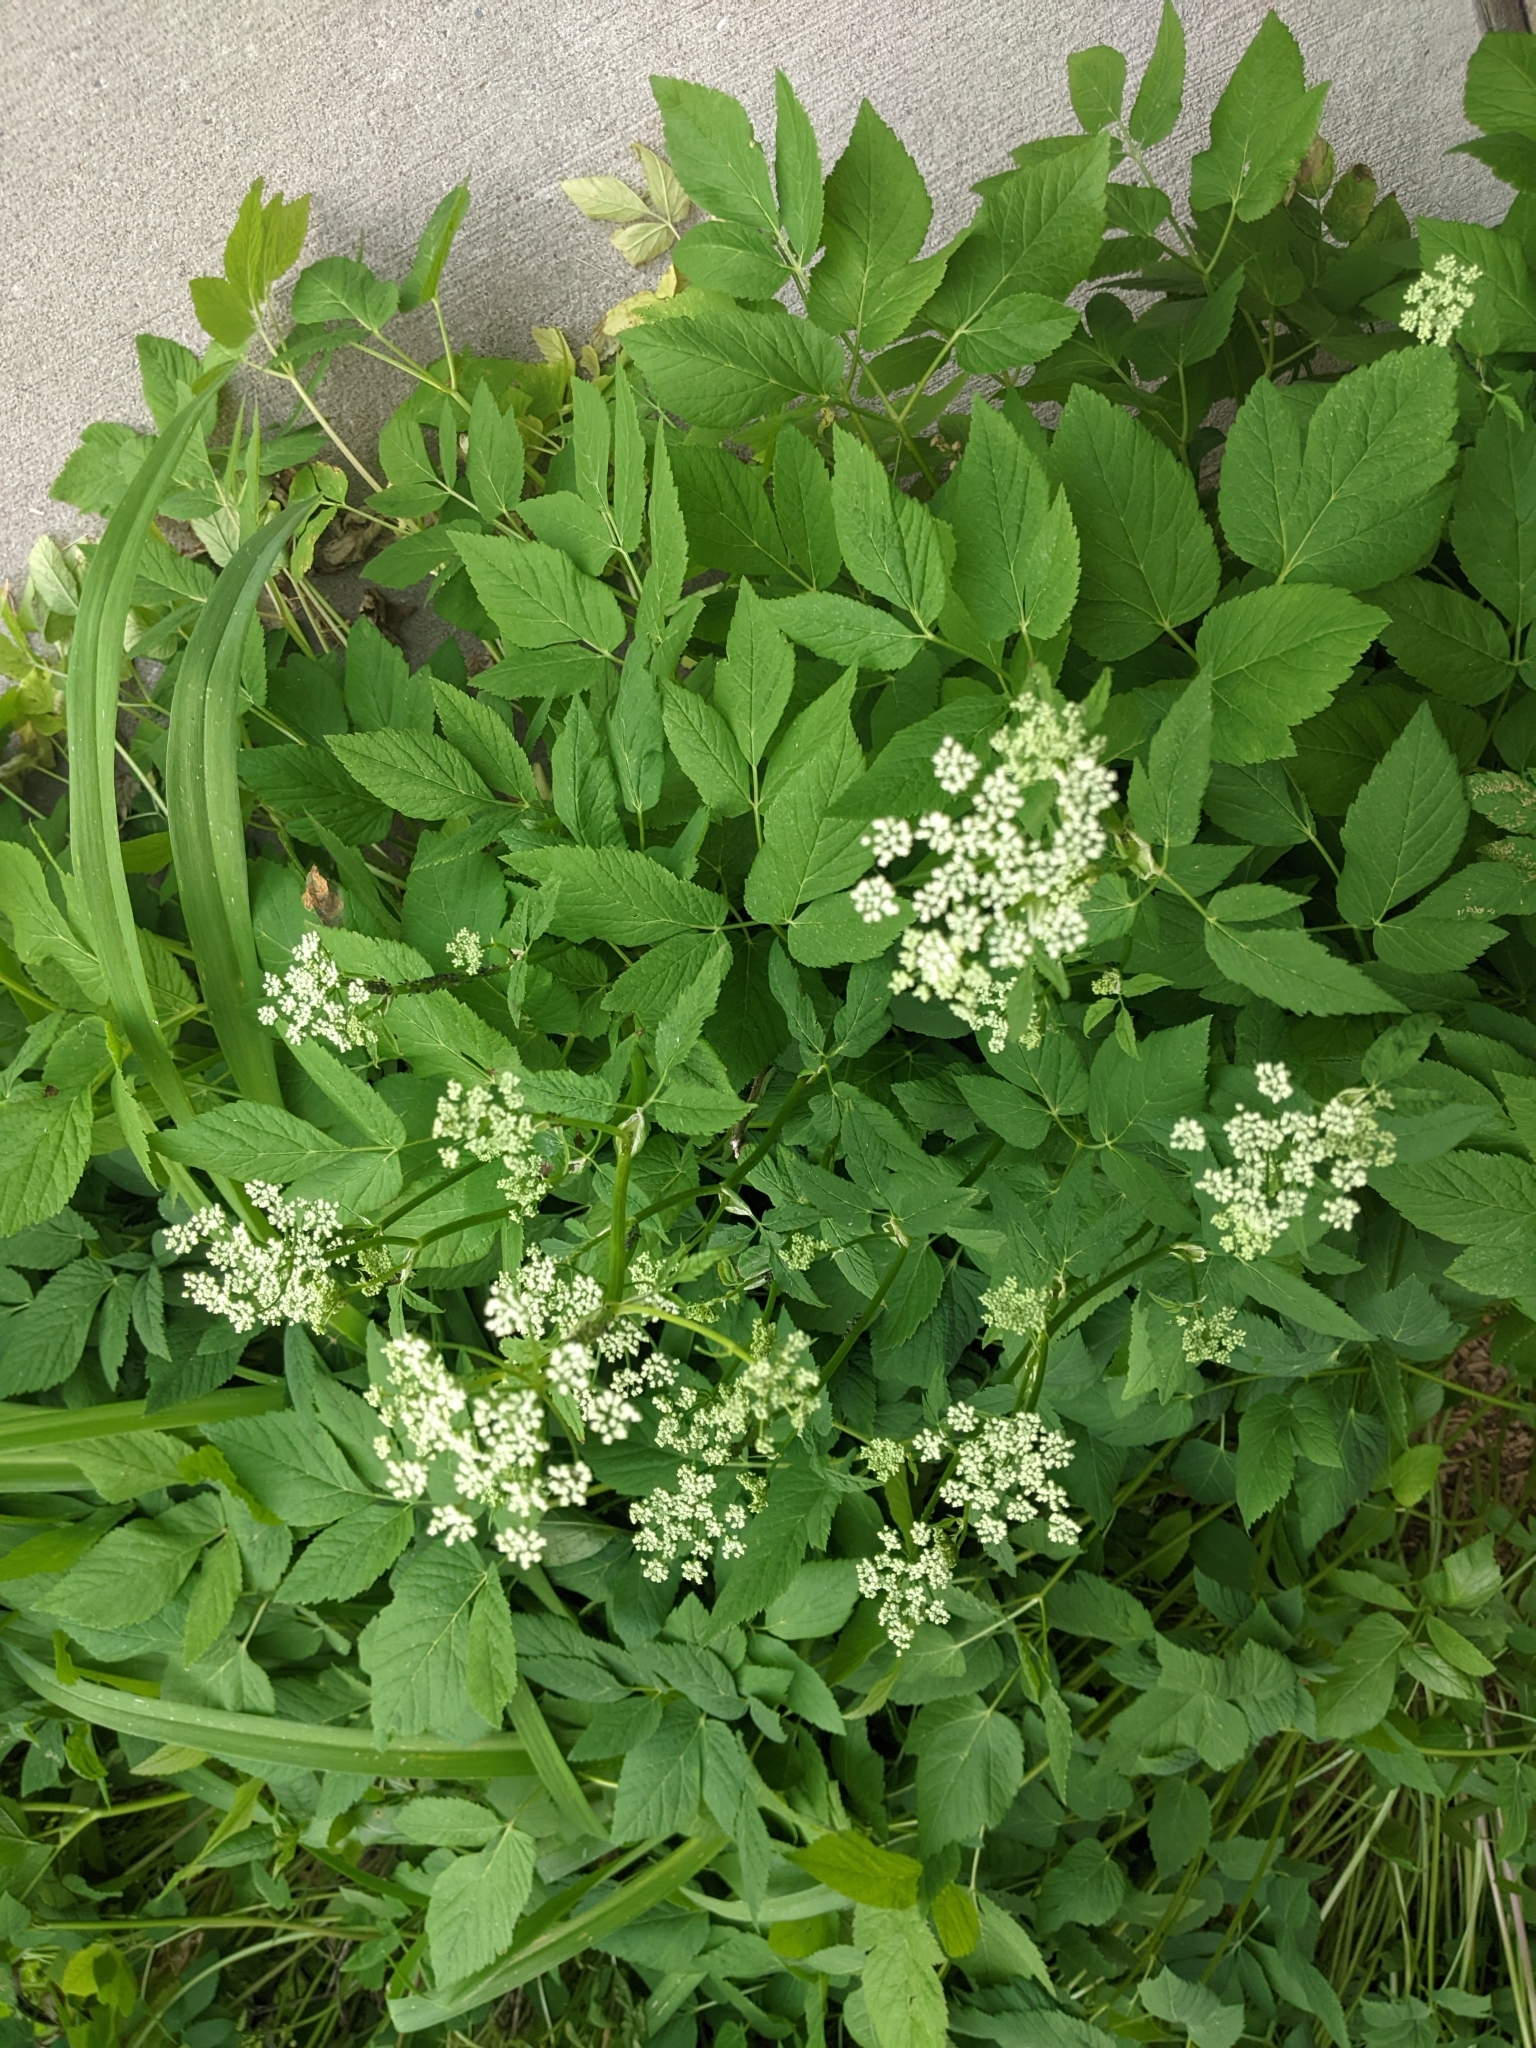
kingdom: Animalia
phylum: Arthropoda
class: Insecta
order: Diptera
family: Tephritidae
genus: Euleia
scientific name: Euleia fratria
